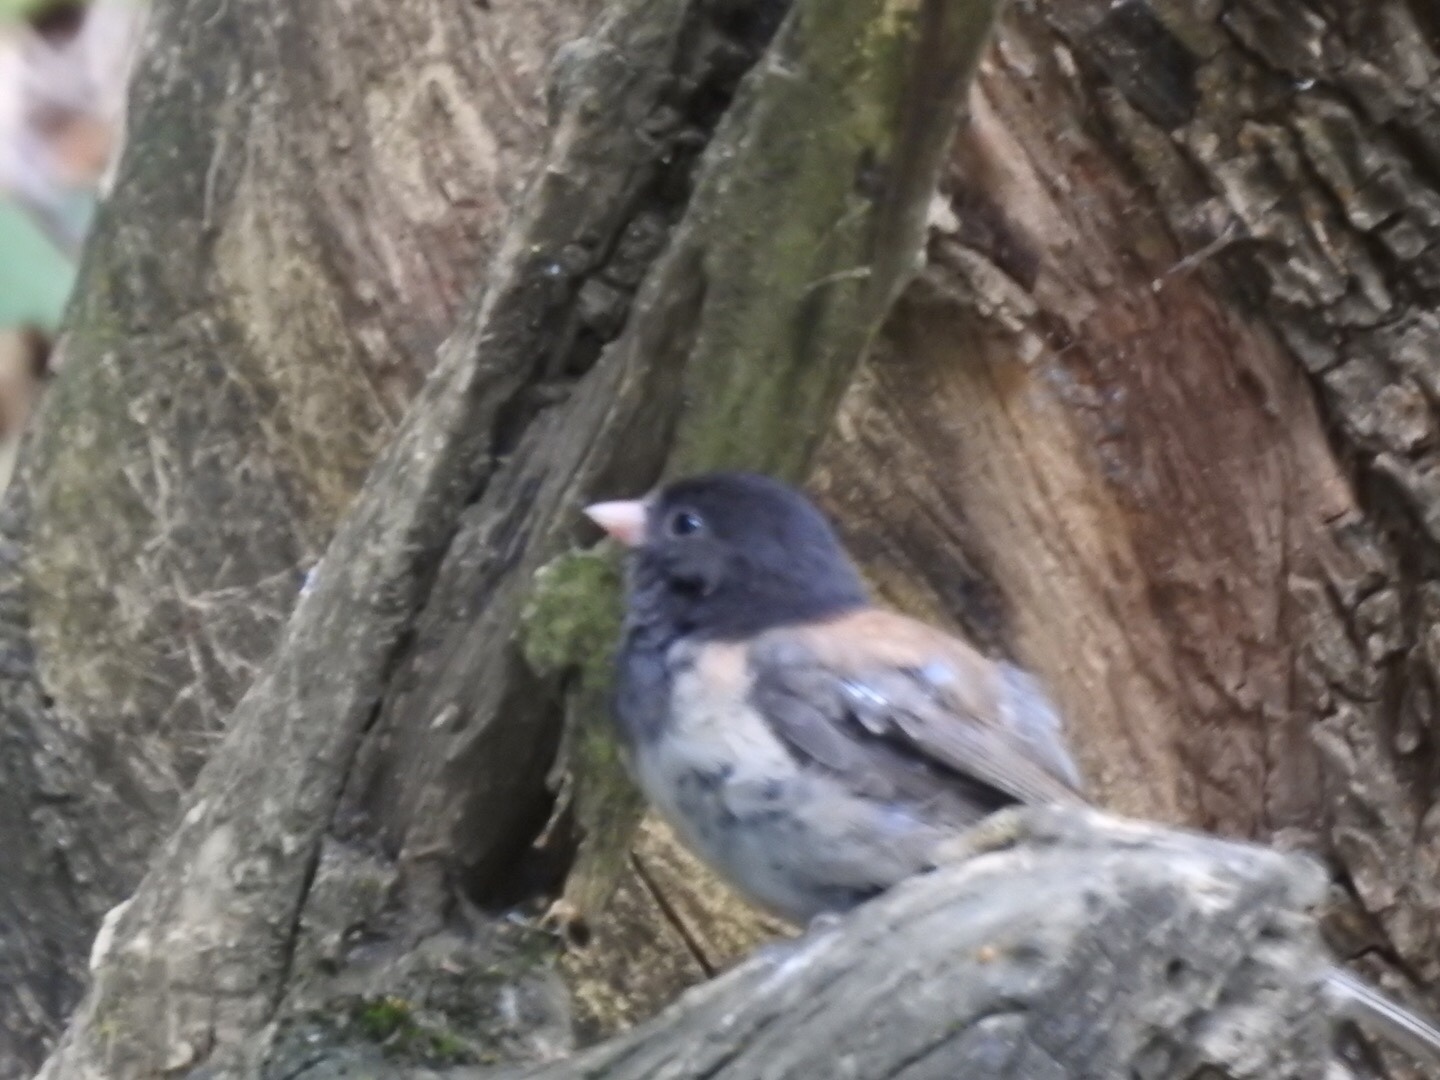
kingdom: Animalia
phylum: Chordata
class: Aves
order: Passeriformes
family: Passerellidae
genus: Junco
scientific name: Junco hyemalis
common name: Dark-eyed junco
